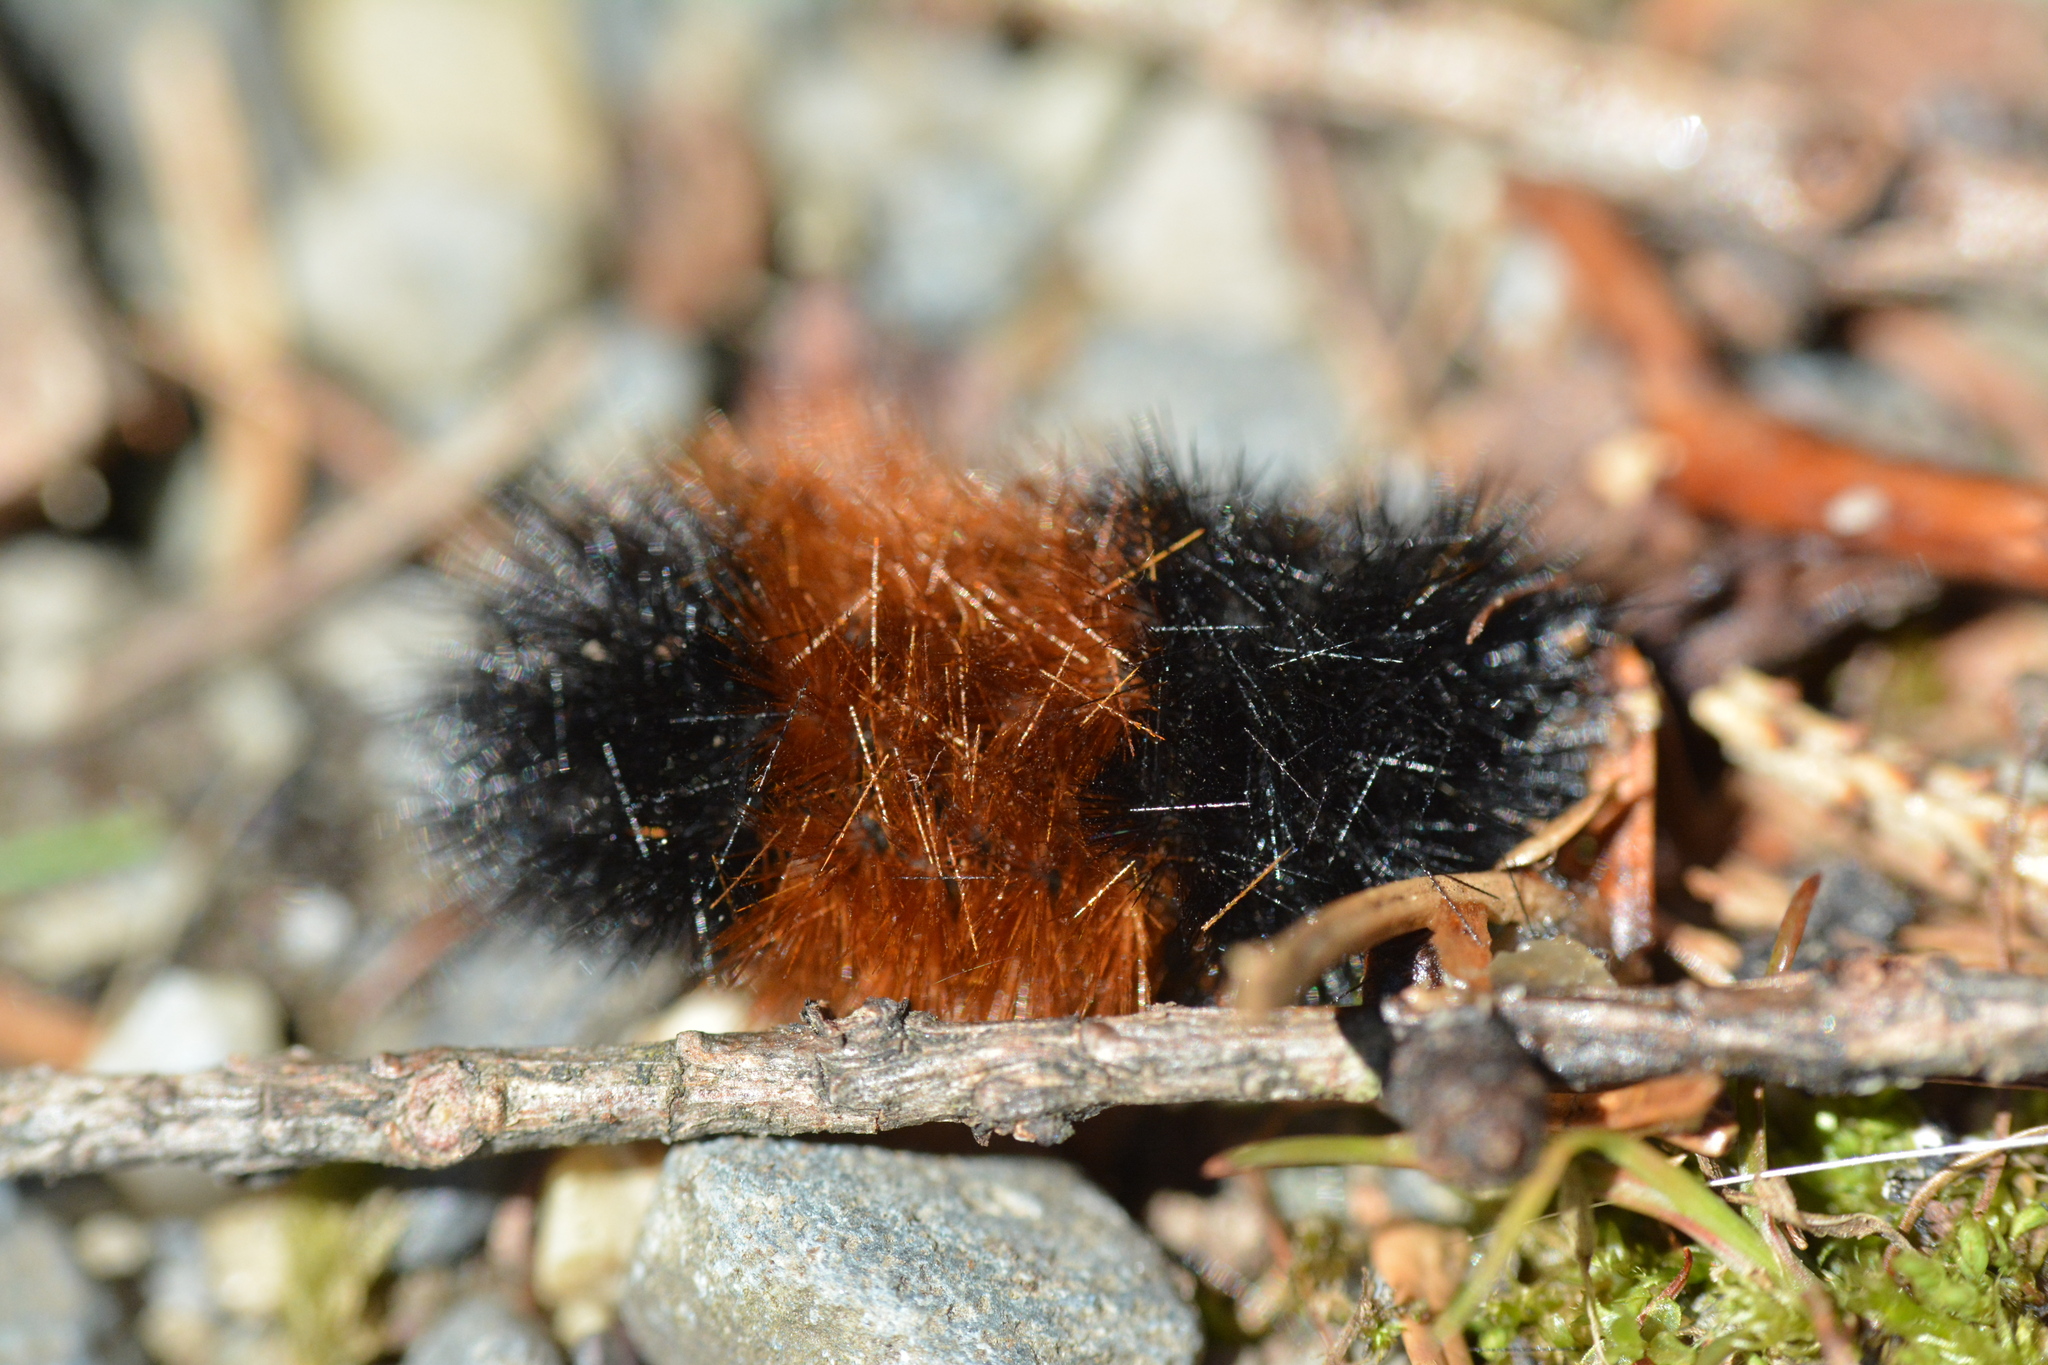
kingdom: Animalia
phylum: Arthropoda
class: Insecta
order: Lepidoptera
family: Erebidae
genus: Pyrrharctia
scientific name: Pyrrharctia isabella
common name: Isabella tiger moth
